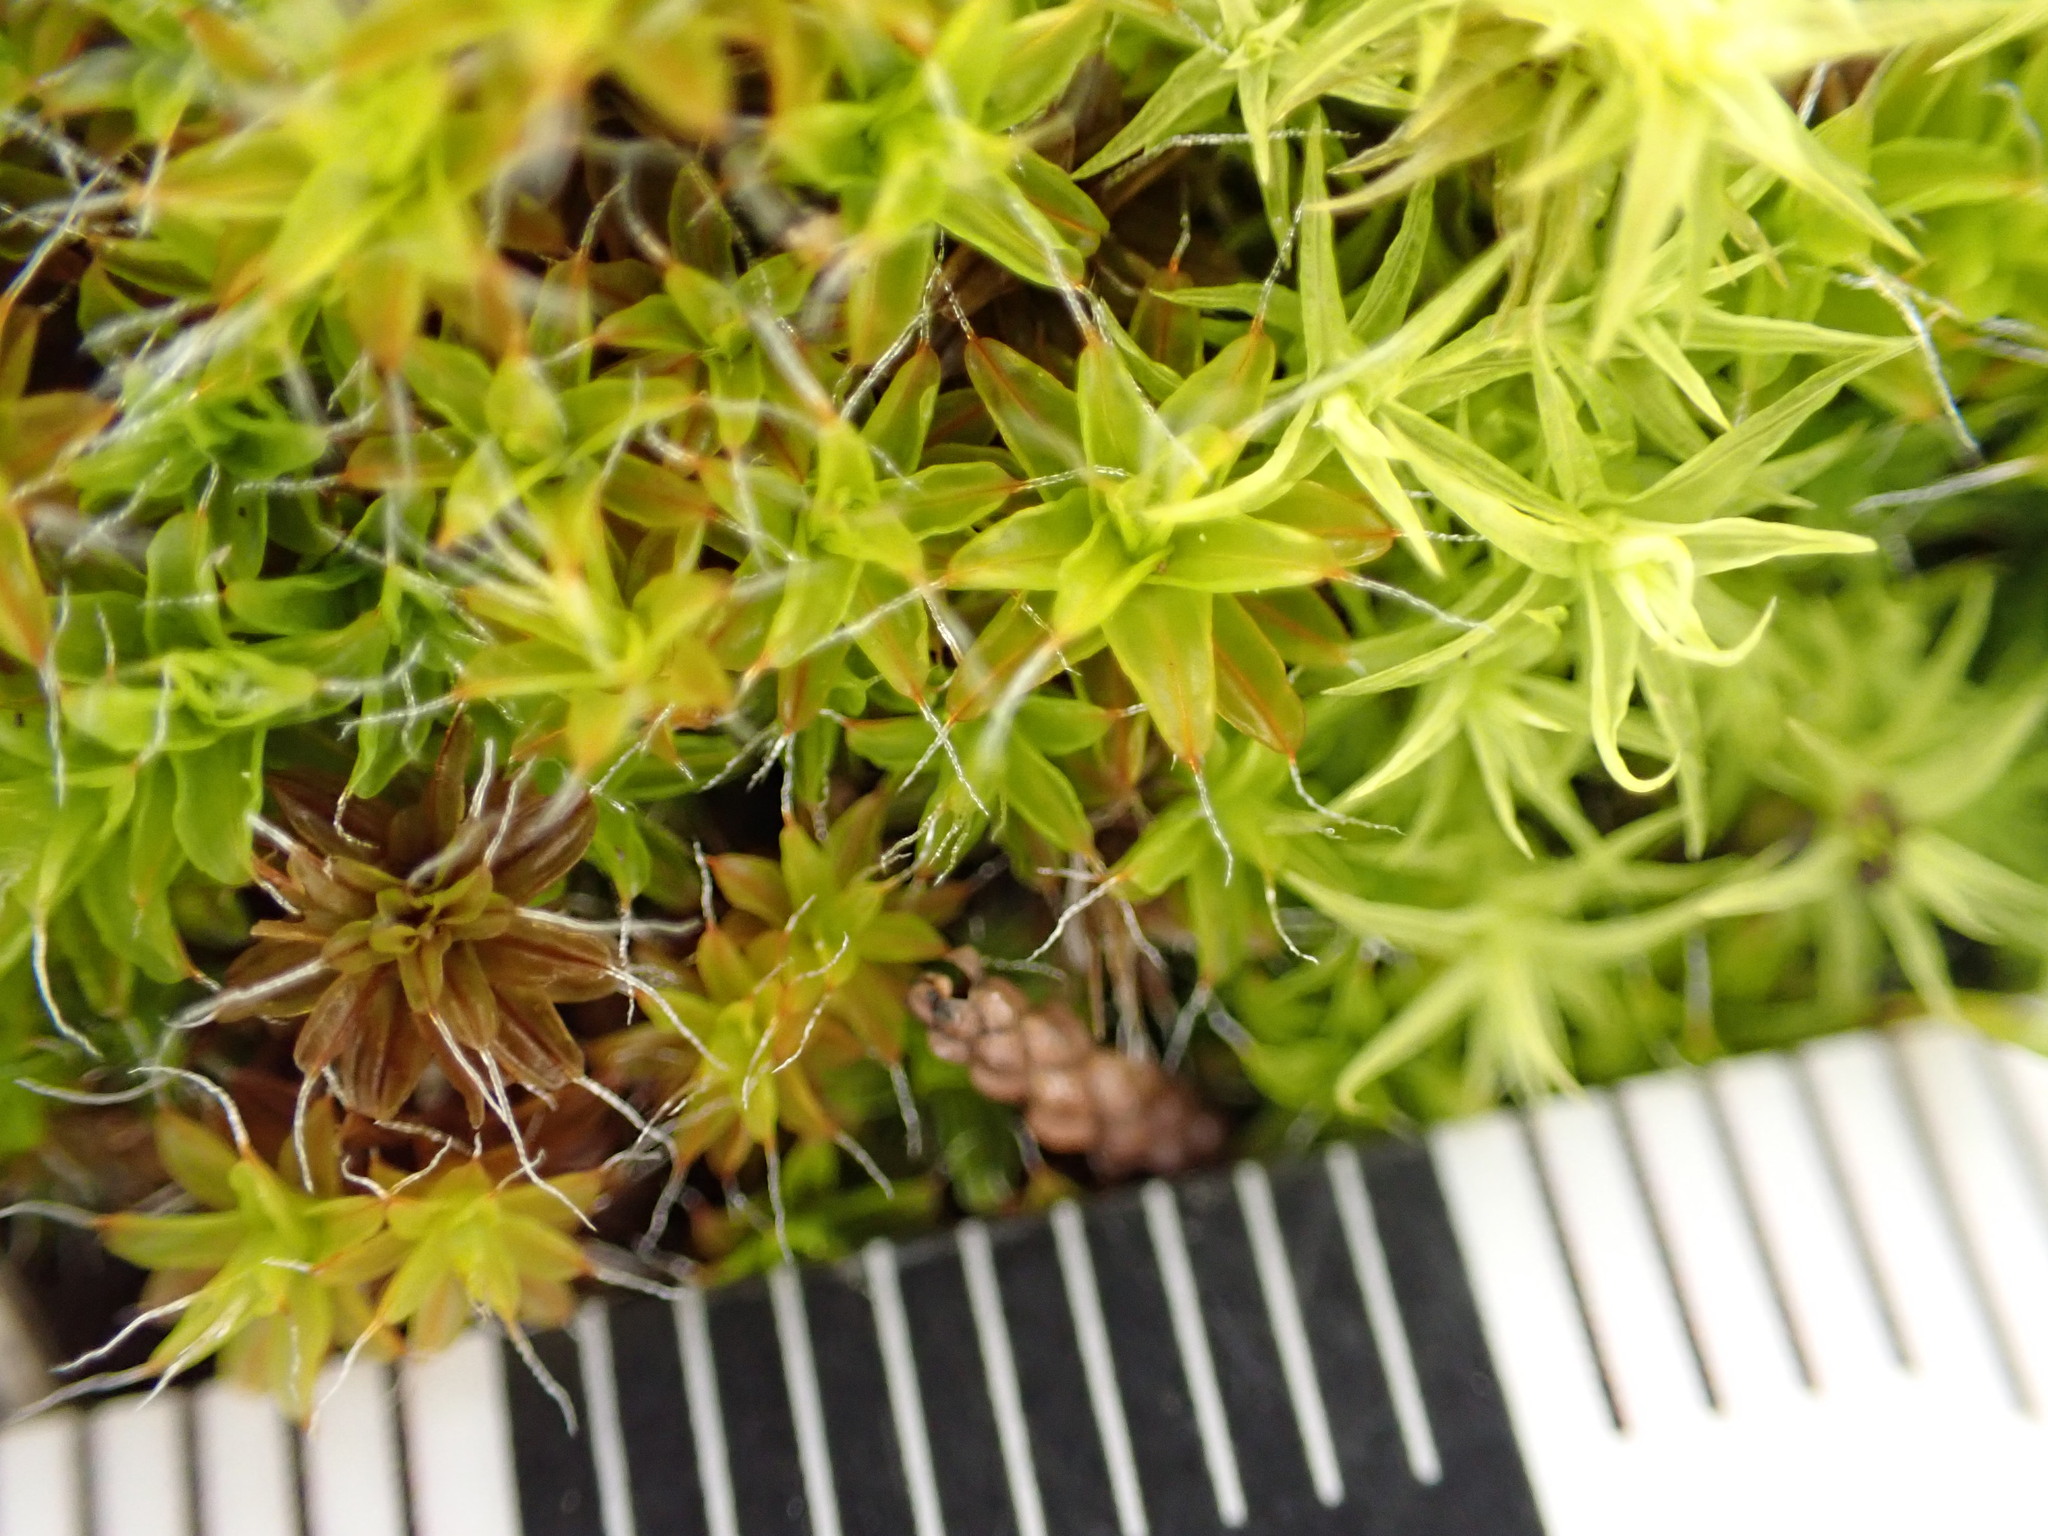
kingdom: Plantae
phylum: Bryophyta
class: Bryopsida
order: Pottiales
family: Pottiaceae
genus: Pleurochaete
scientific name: Pleurochaete squarrosa
